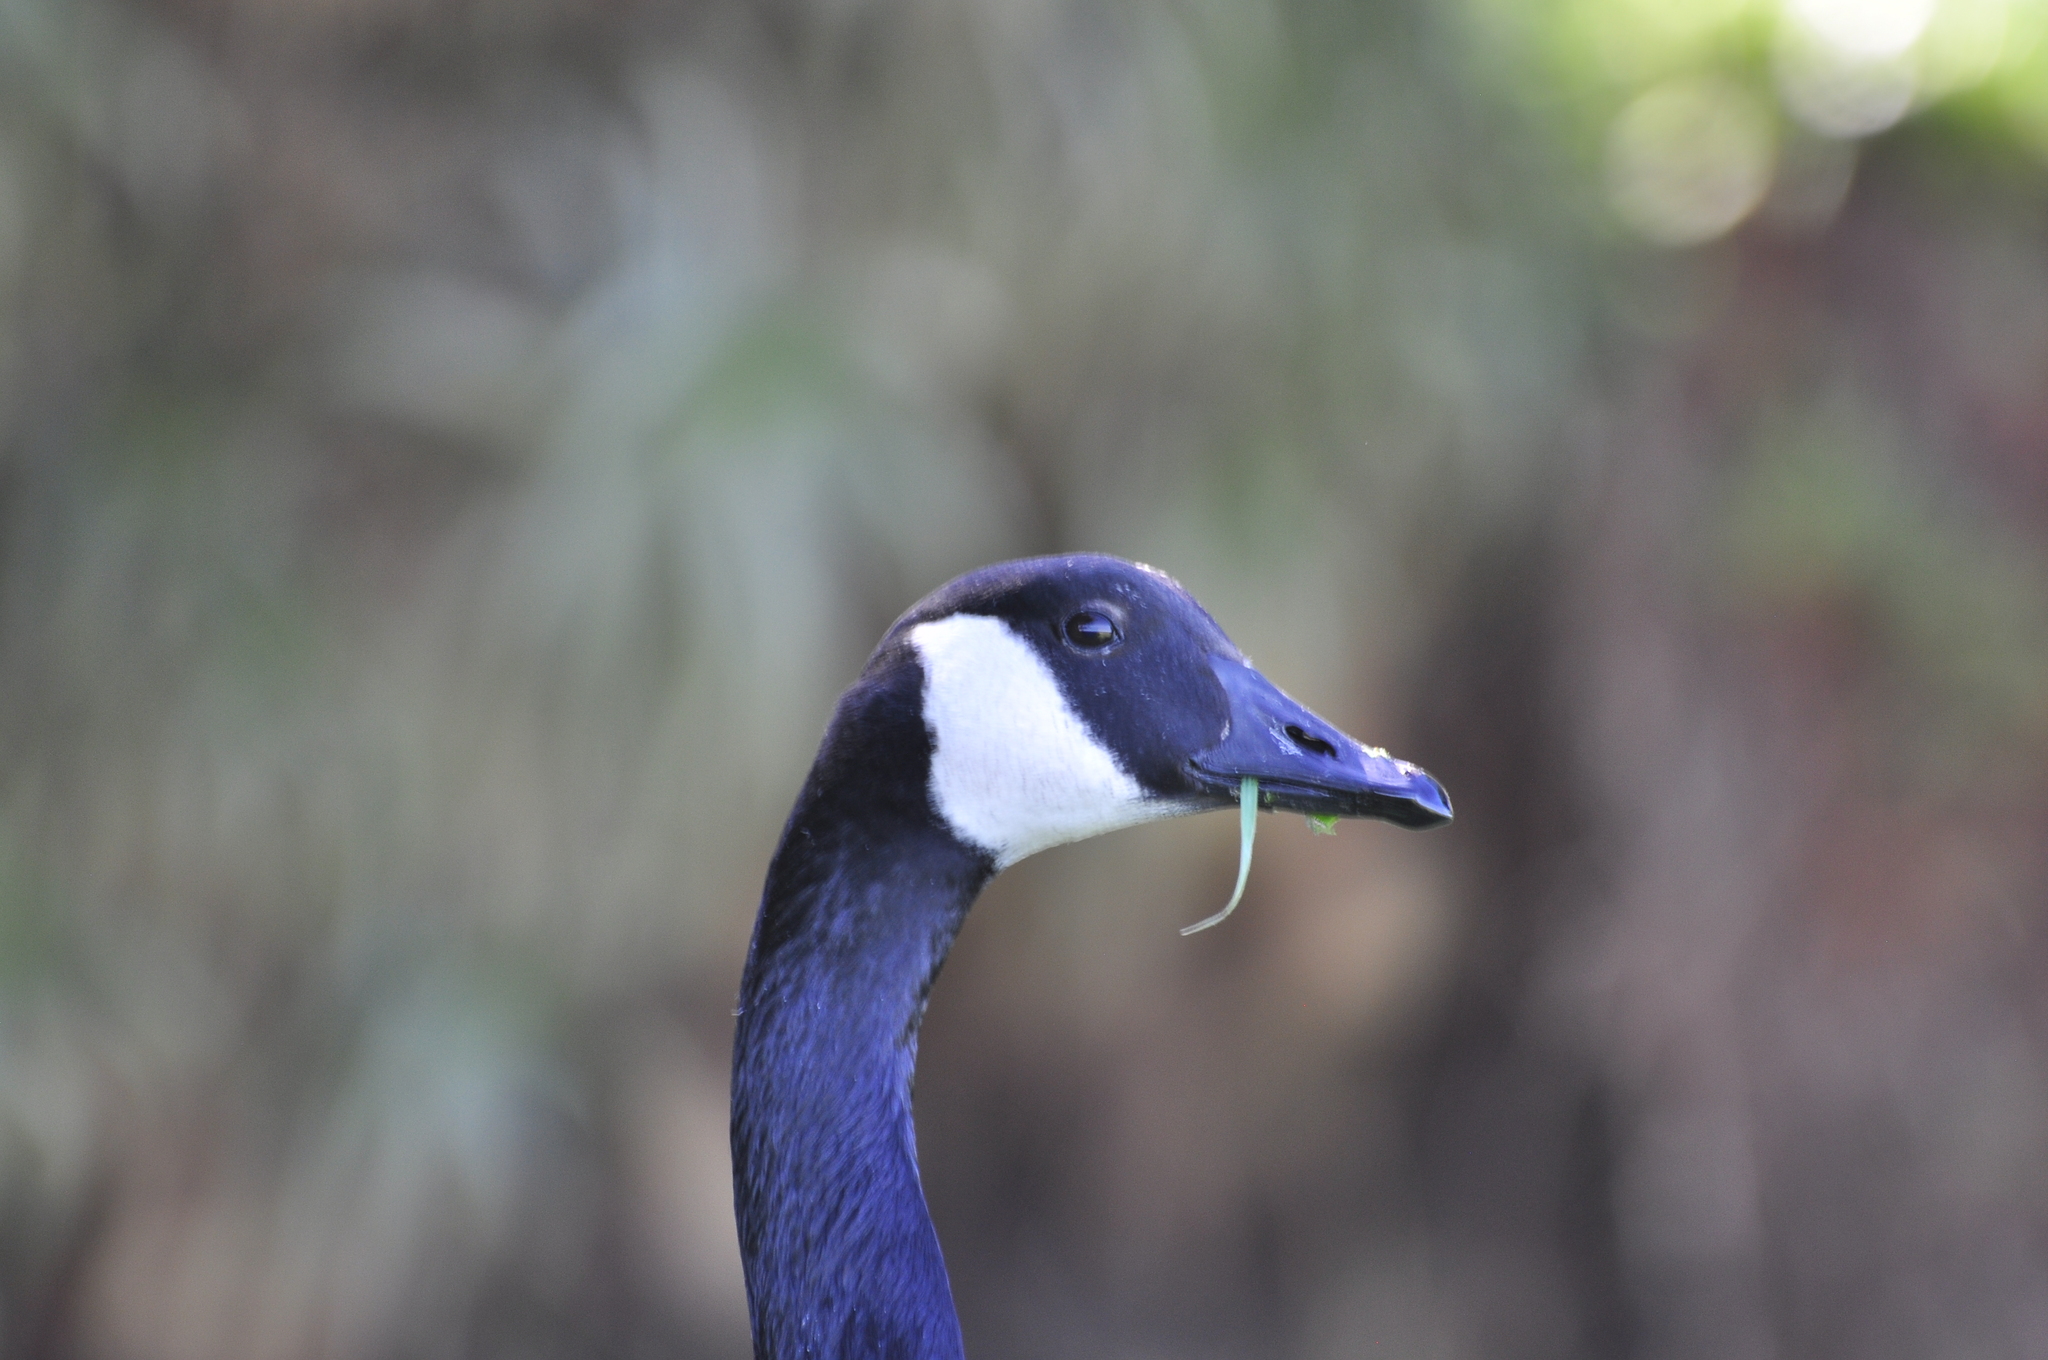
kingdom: Animalia
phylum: Chordata
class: Aves
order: Anseriformes
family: Anatidae
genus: Branta
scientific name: Branta canadensis
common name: Canada goose
